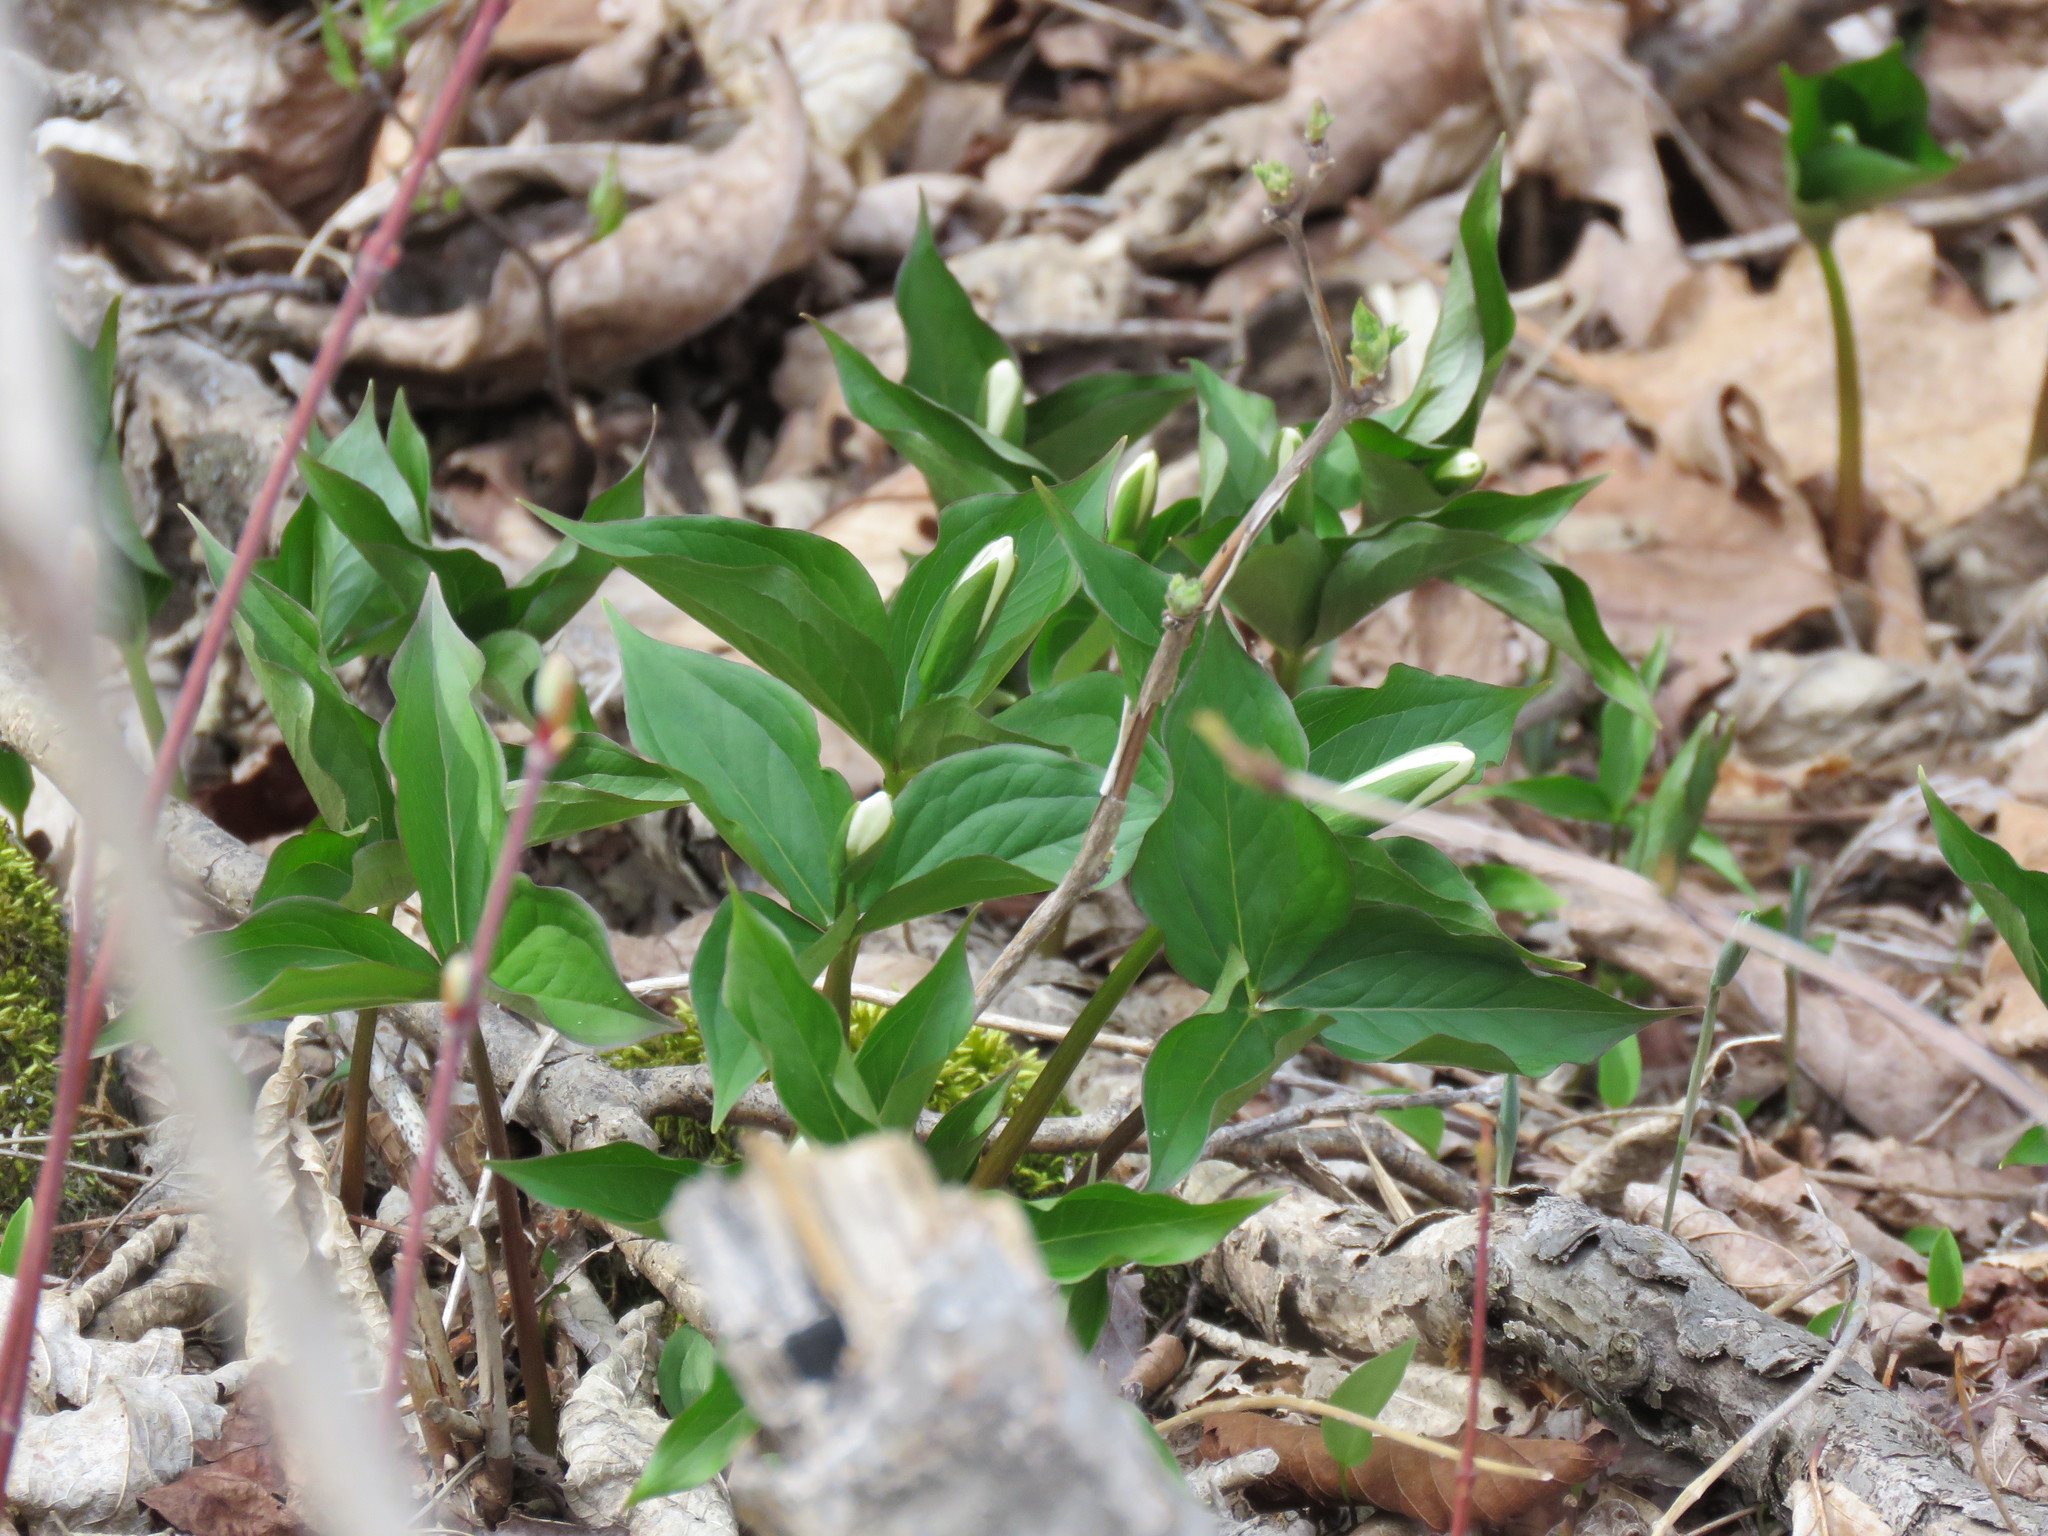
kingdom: Plantae
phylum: Tracheophyta
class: Liliopsida
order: Liliales
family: Melanthiaceae
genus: Trillium
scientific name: Trillium grandiflorum
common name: Great white trillium
